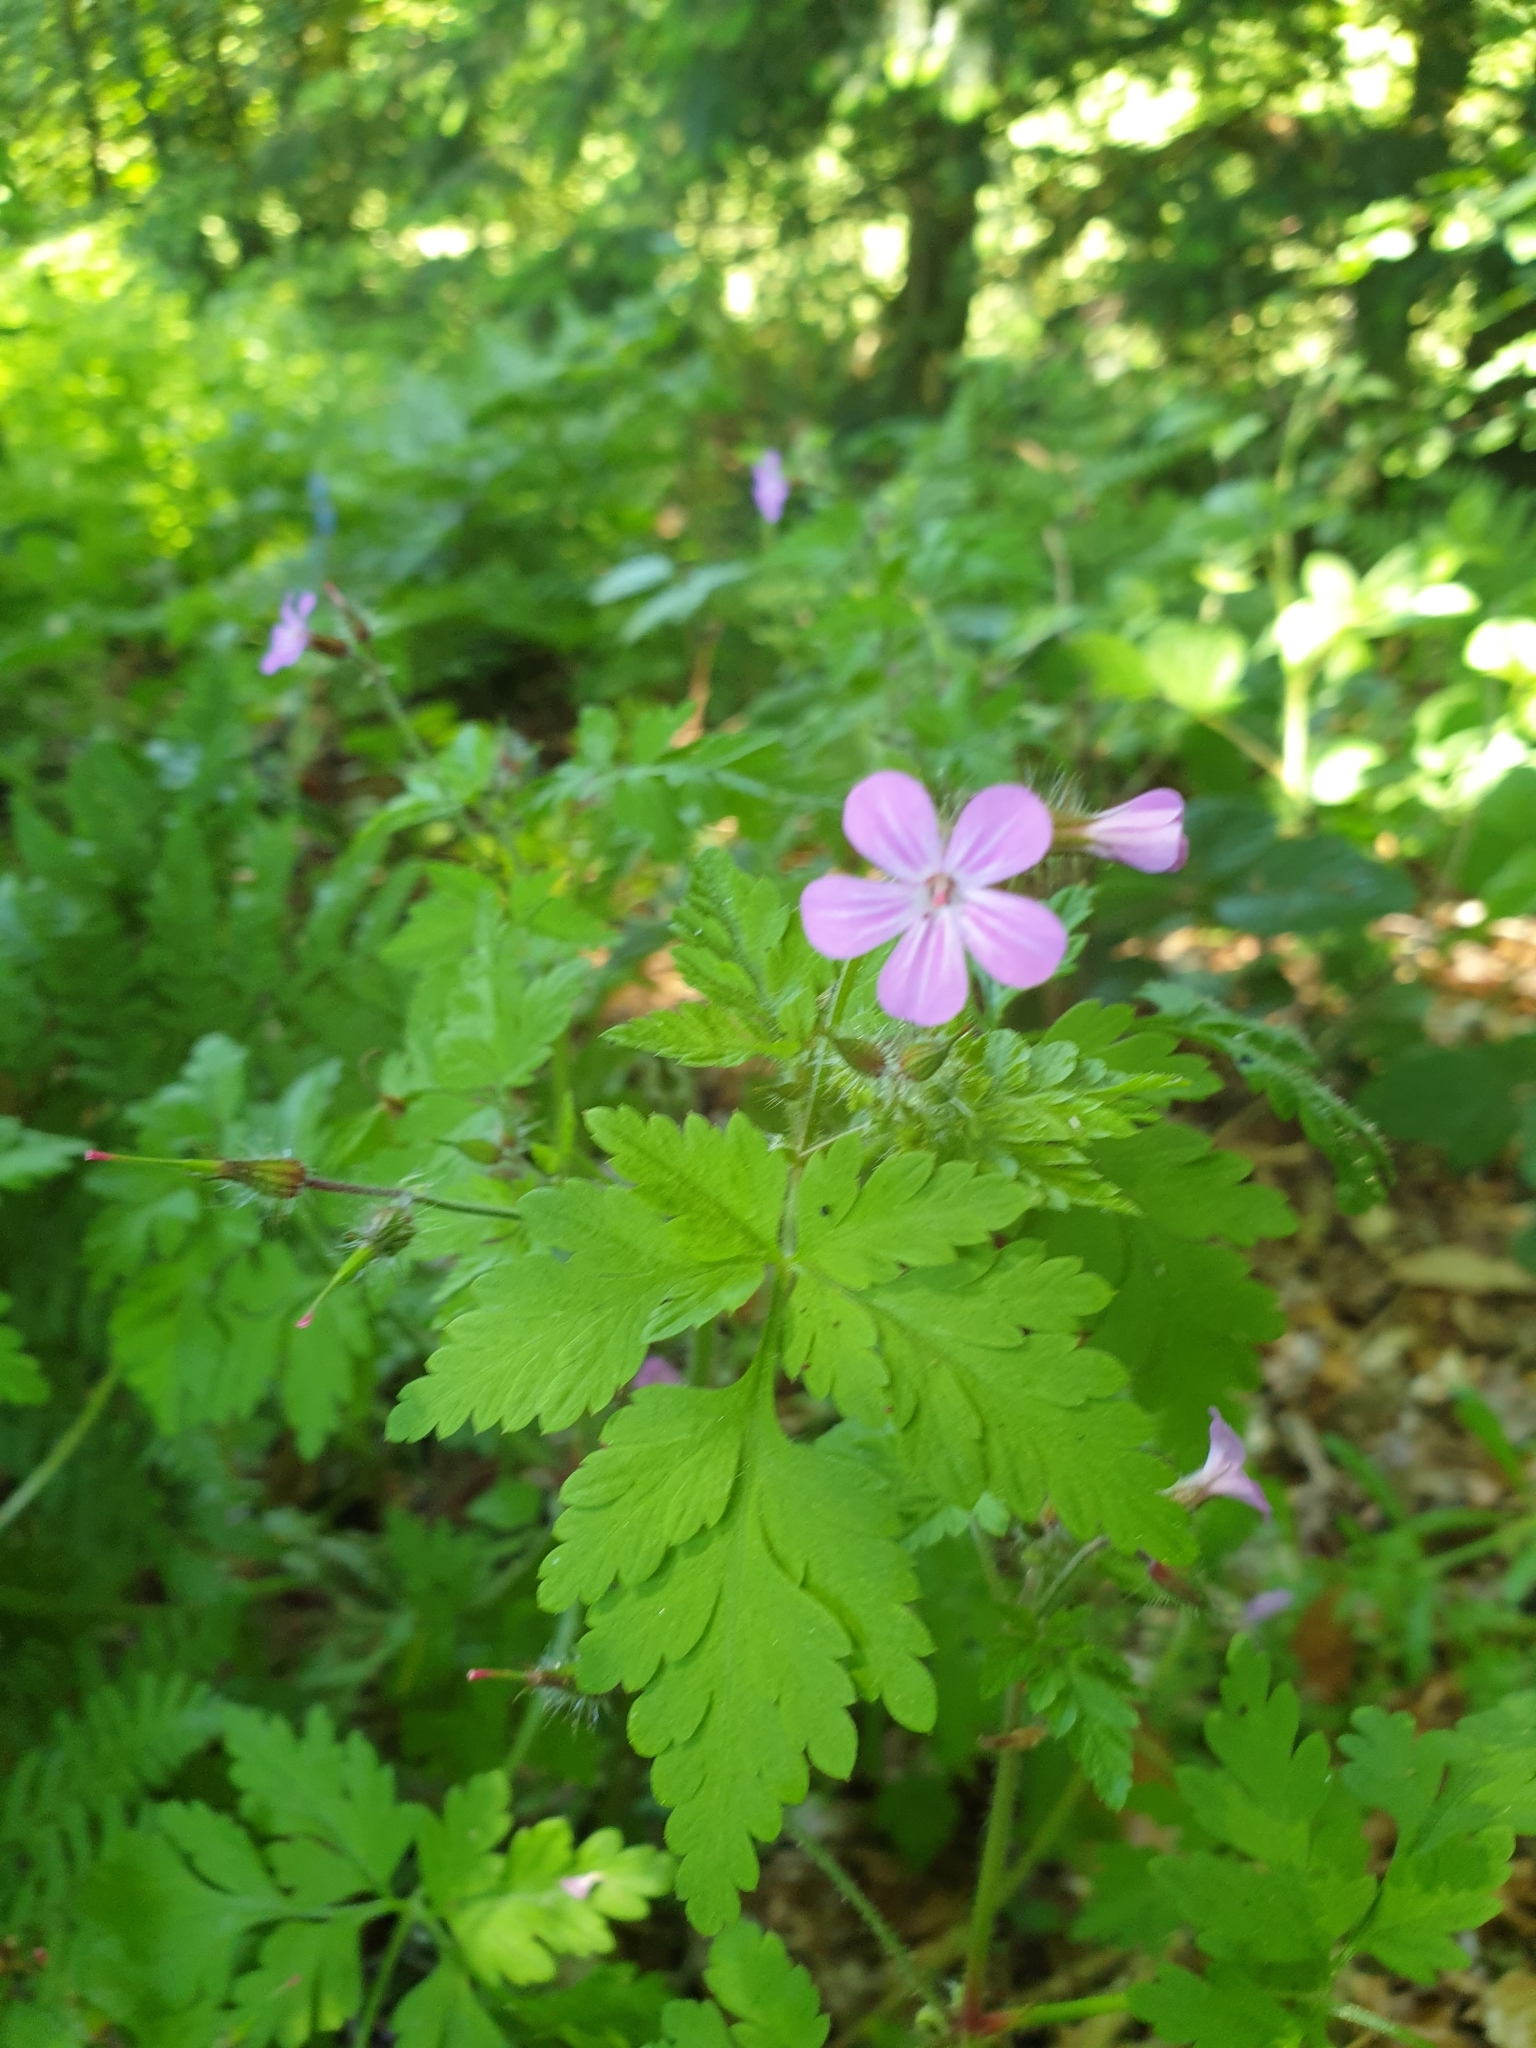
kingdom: Plantae
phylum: Tracheophyta
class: Magnoliopsida
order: Geraniales
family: Geraniaceae
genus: Geranium
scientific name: Geranium robertianum
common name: Herb-robert
